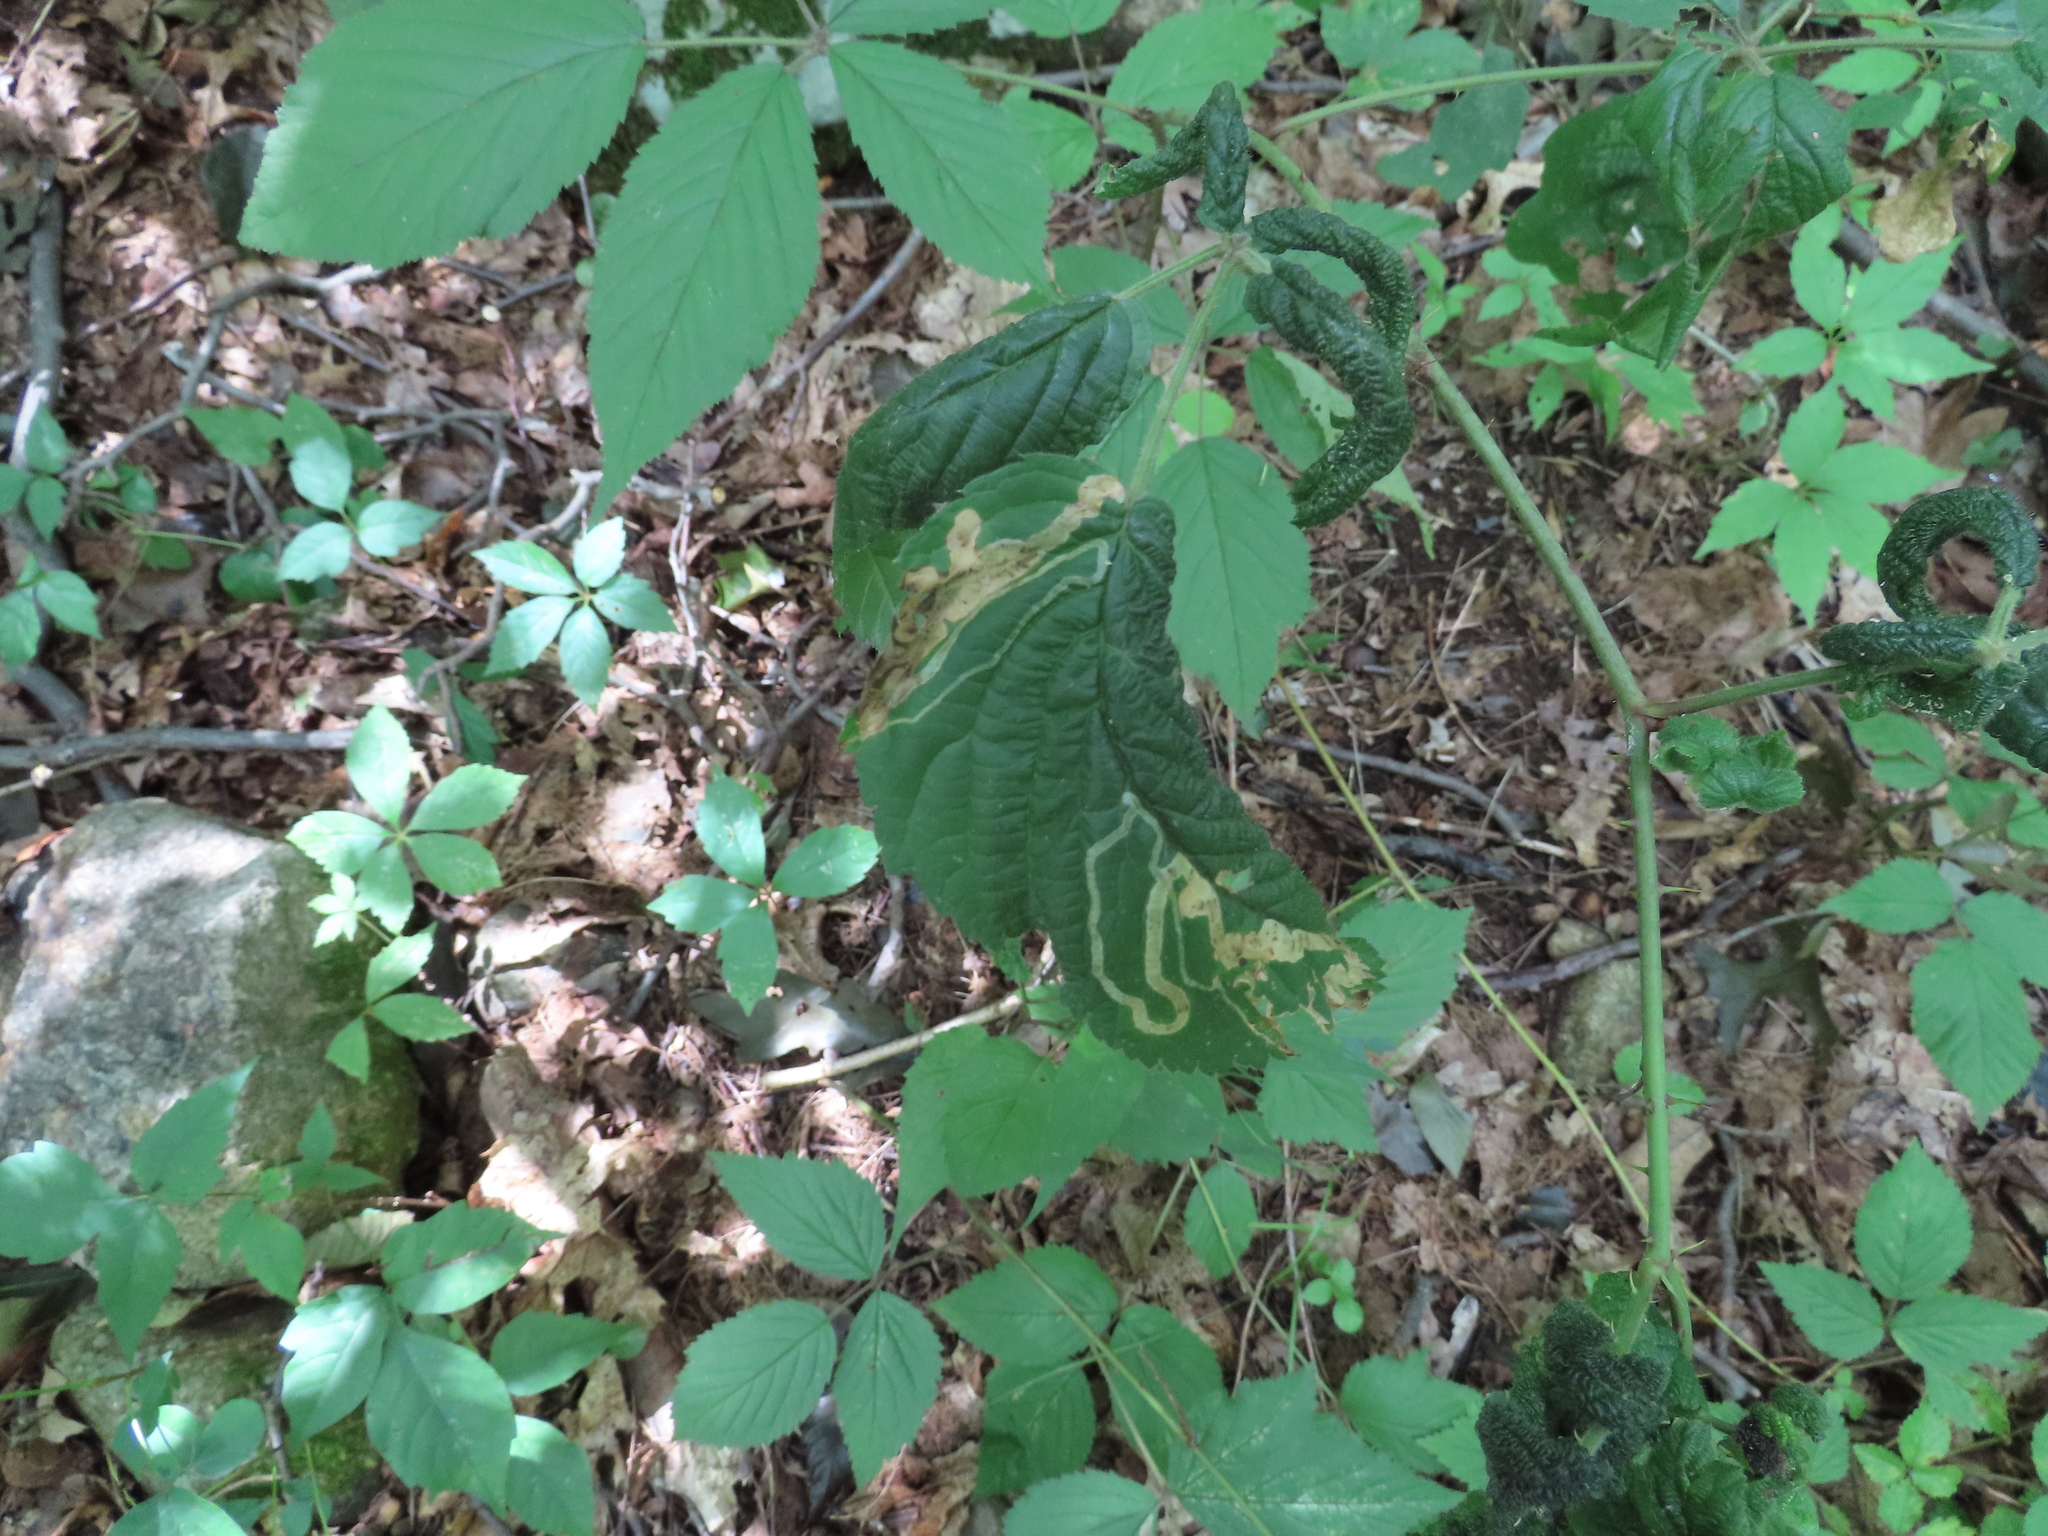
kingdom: Animalia
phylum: Arthropoda
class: Insecta
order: Diptera
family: Agromyzidae
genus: Agromyza
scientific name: Agromyza vockerothi
